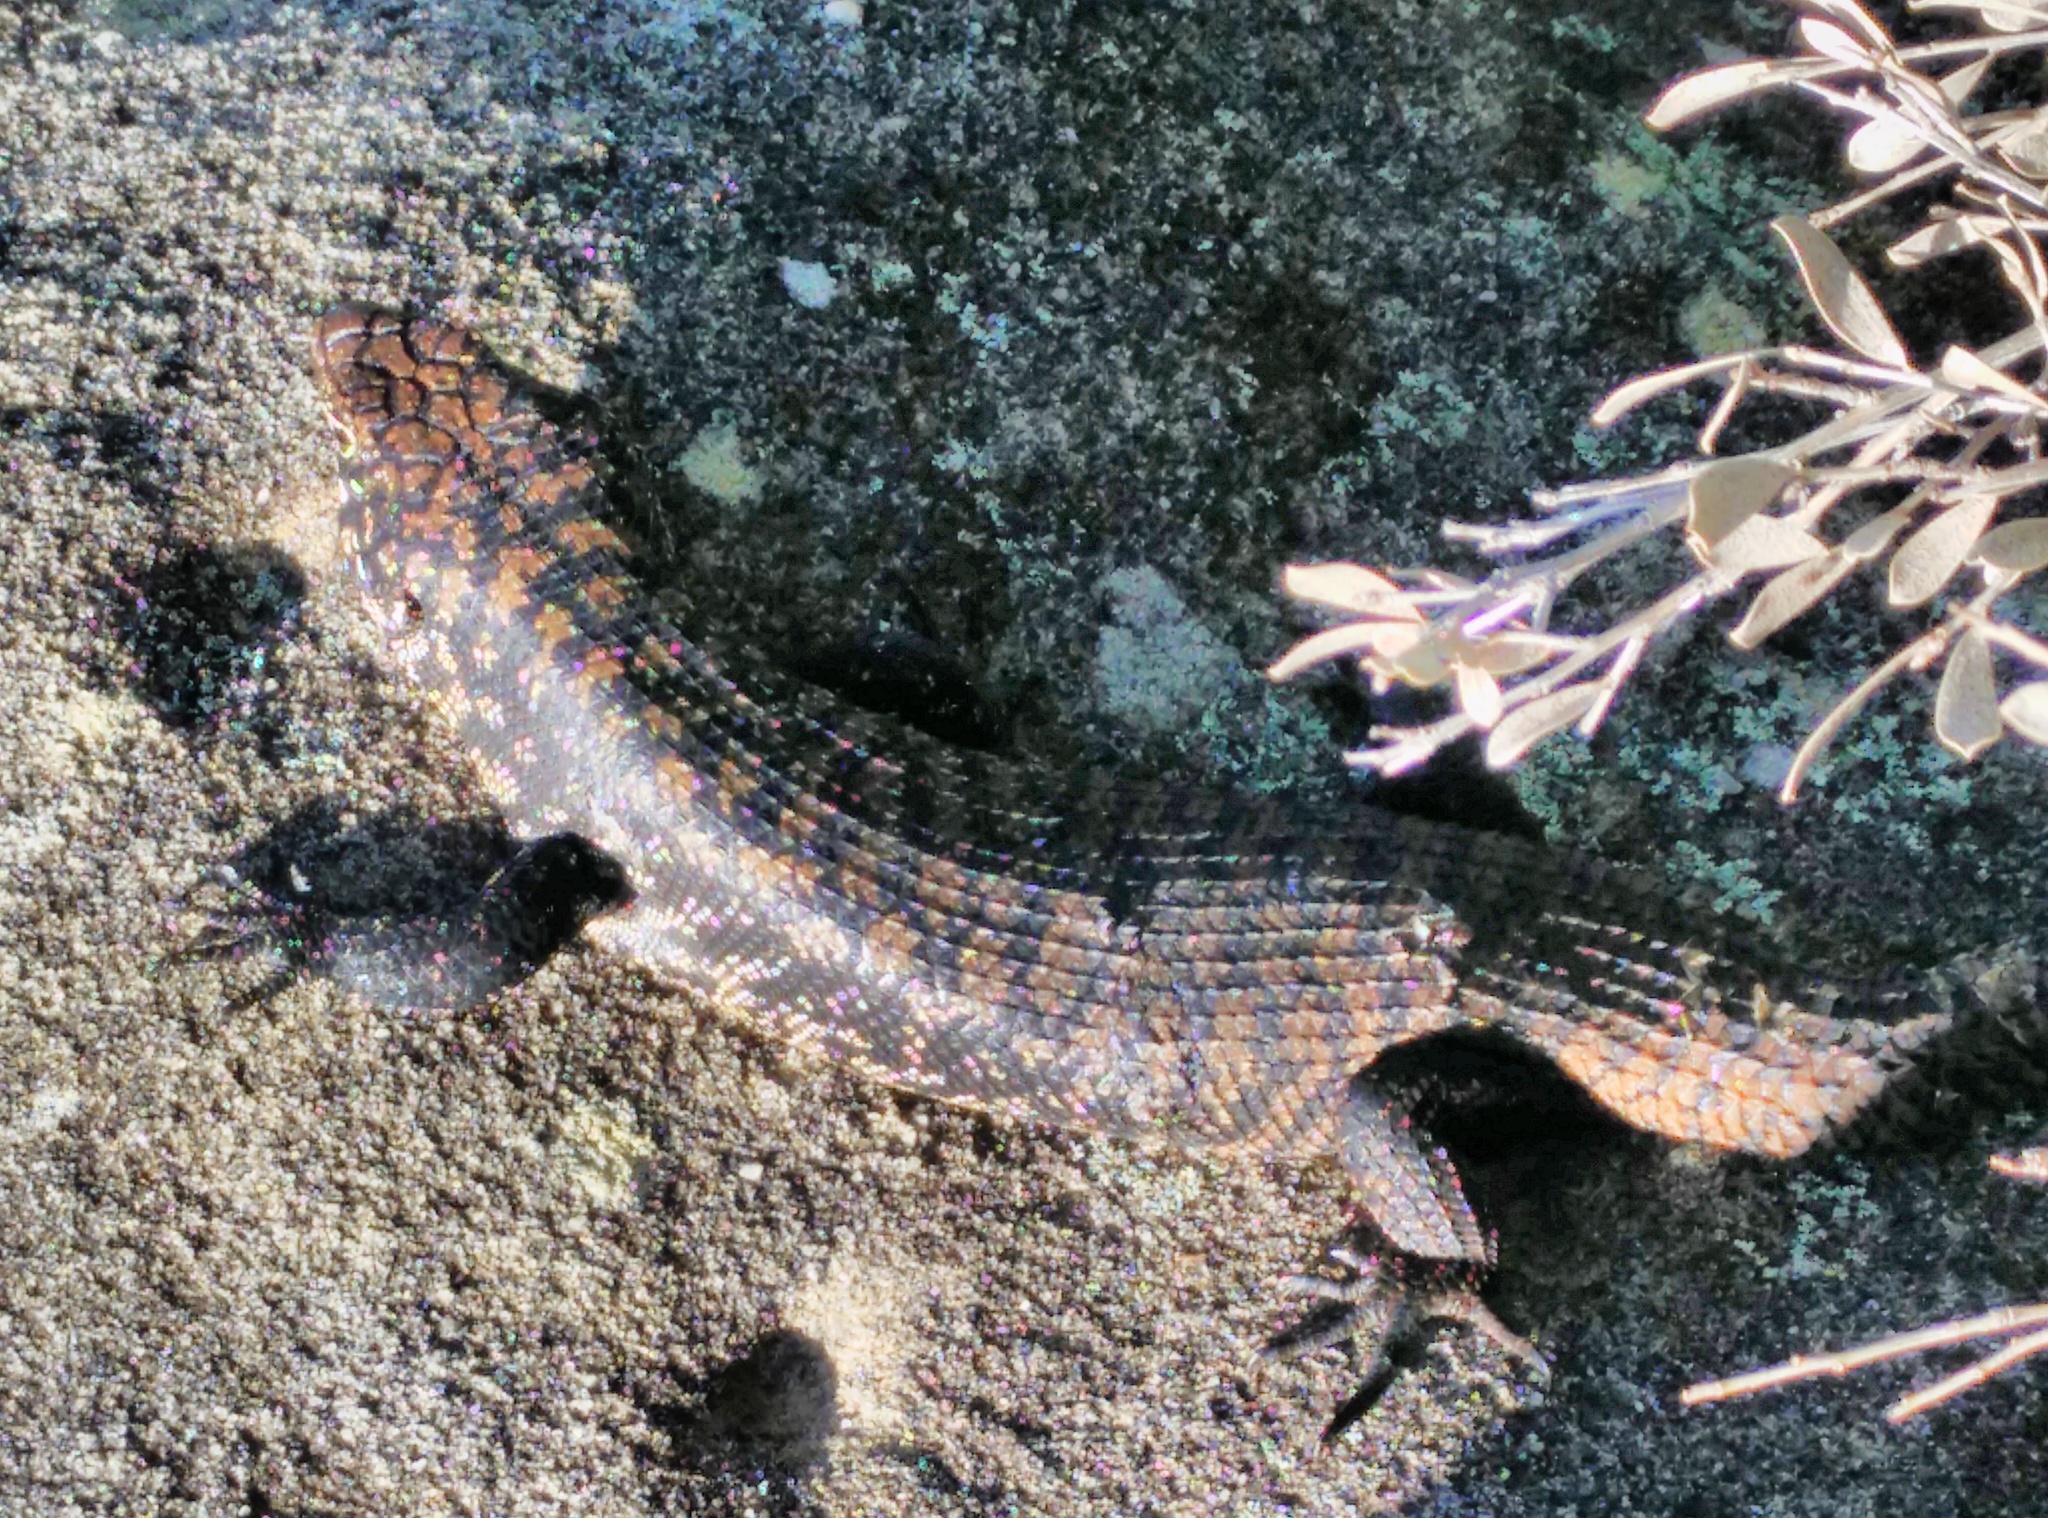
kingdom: Animalia
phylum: Chordata
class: Squamata
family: Scincidae
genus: Egernia
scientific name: Egernia cunninghami
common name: Cunningham's skink
